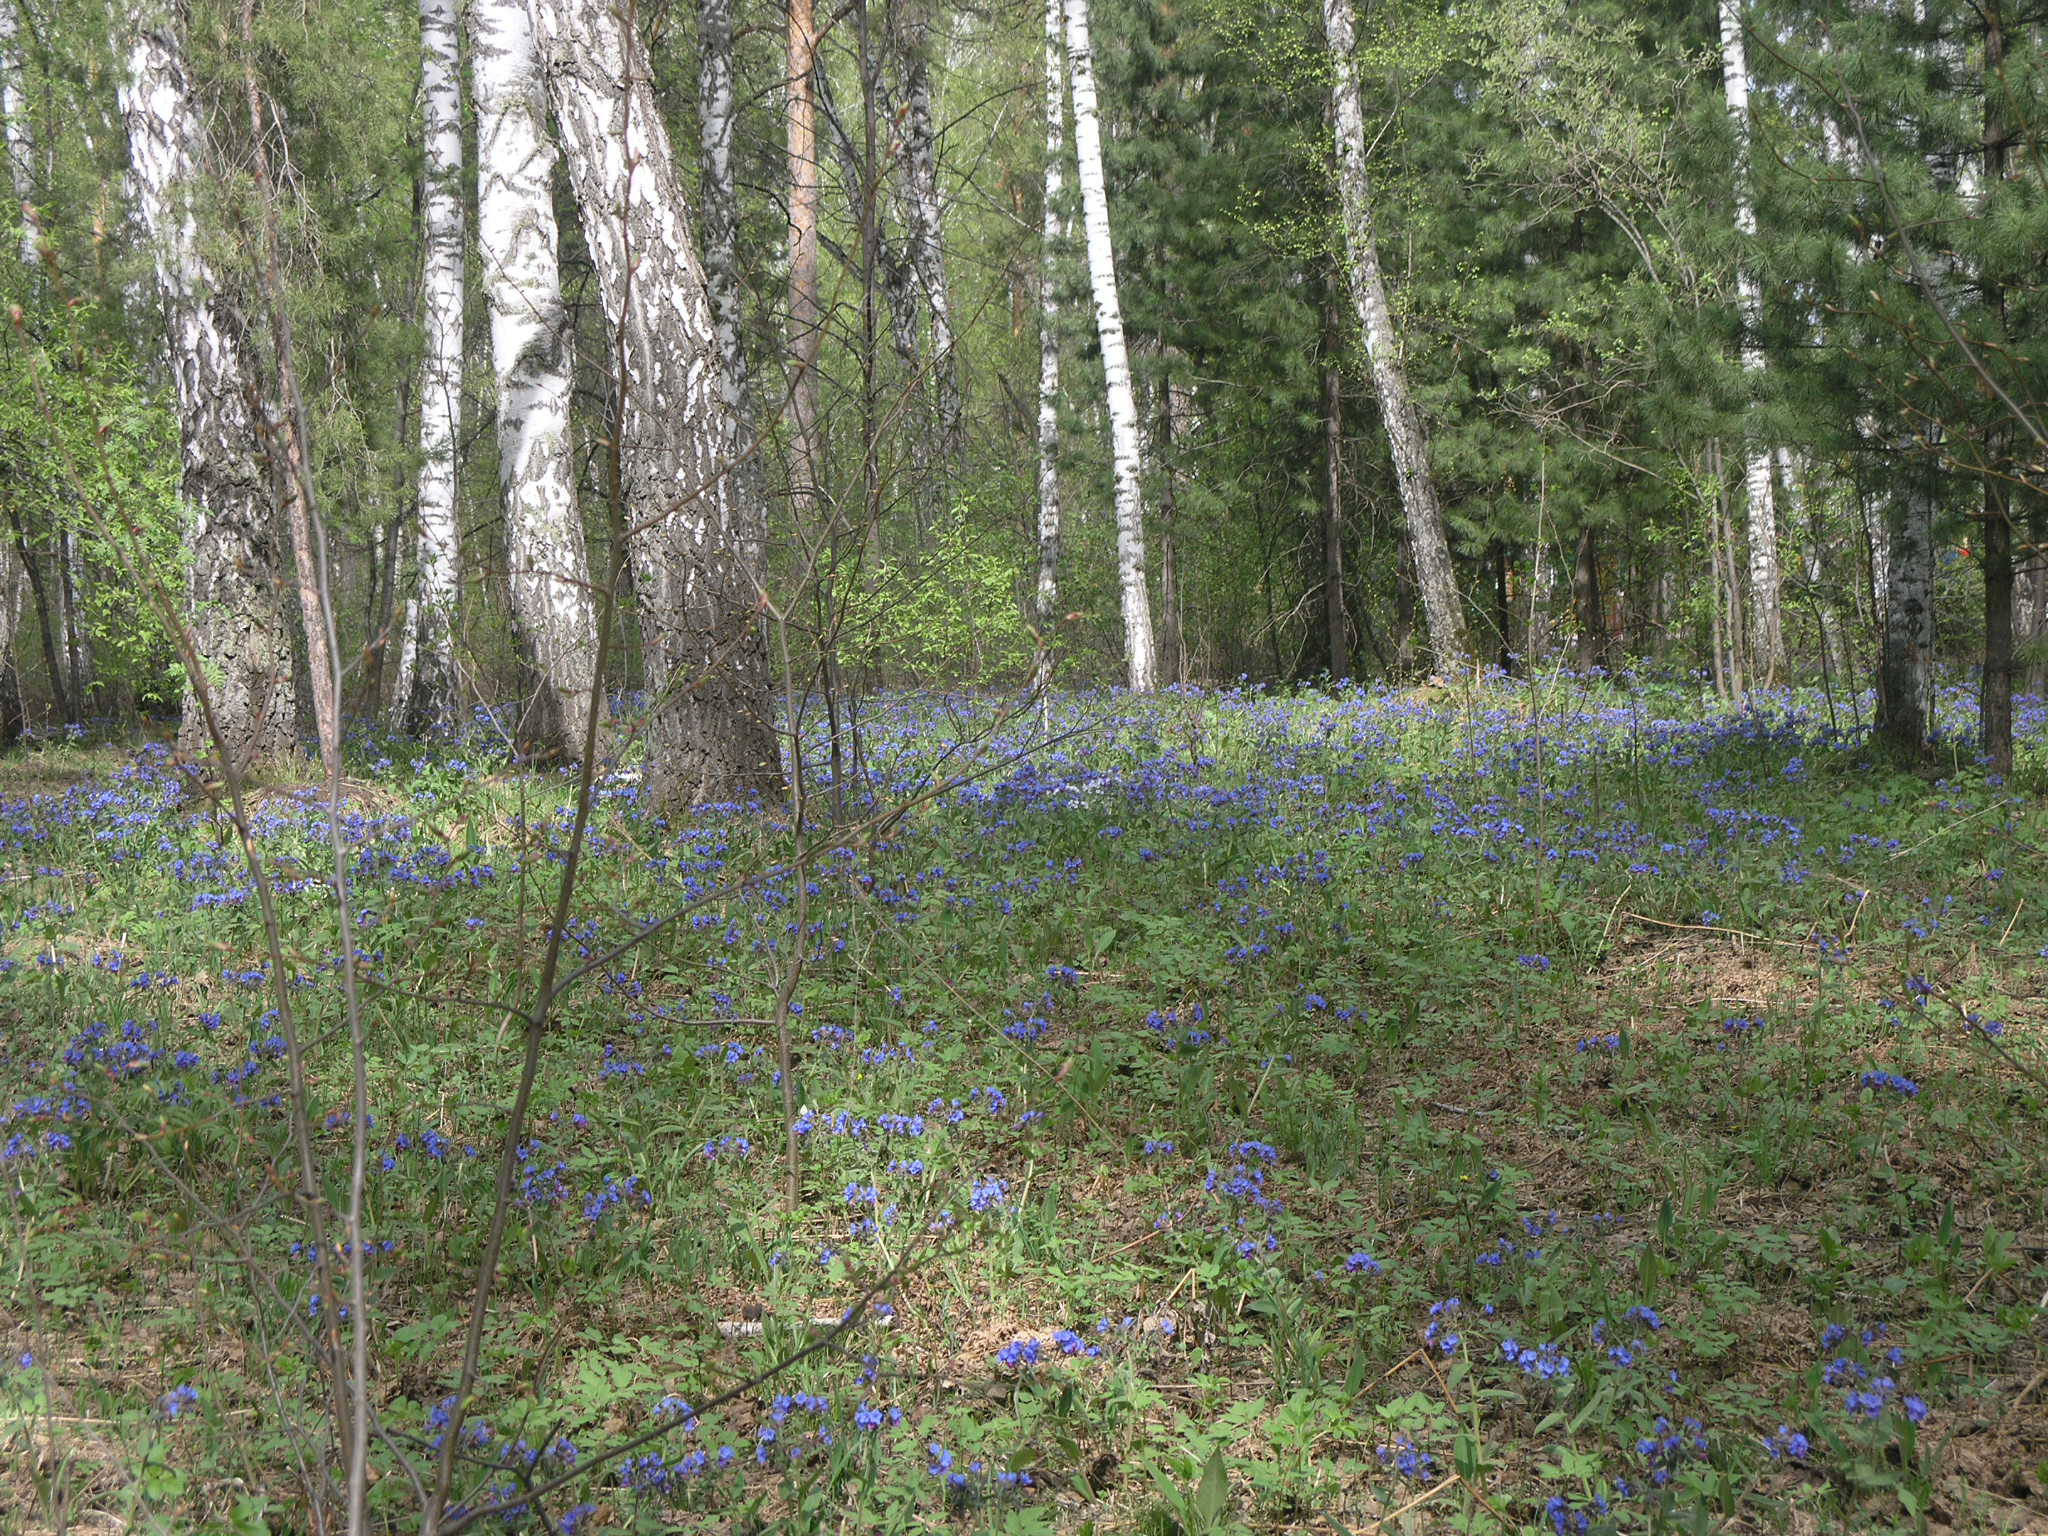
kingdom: Plantae
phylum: Tracheophyta
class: Magnoliopsida
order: Boraginales
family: Boraginaceae
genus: Pulmonaria
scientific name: Pulmonaria mollis
